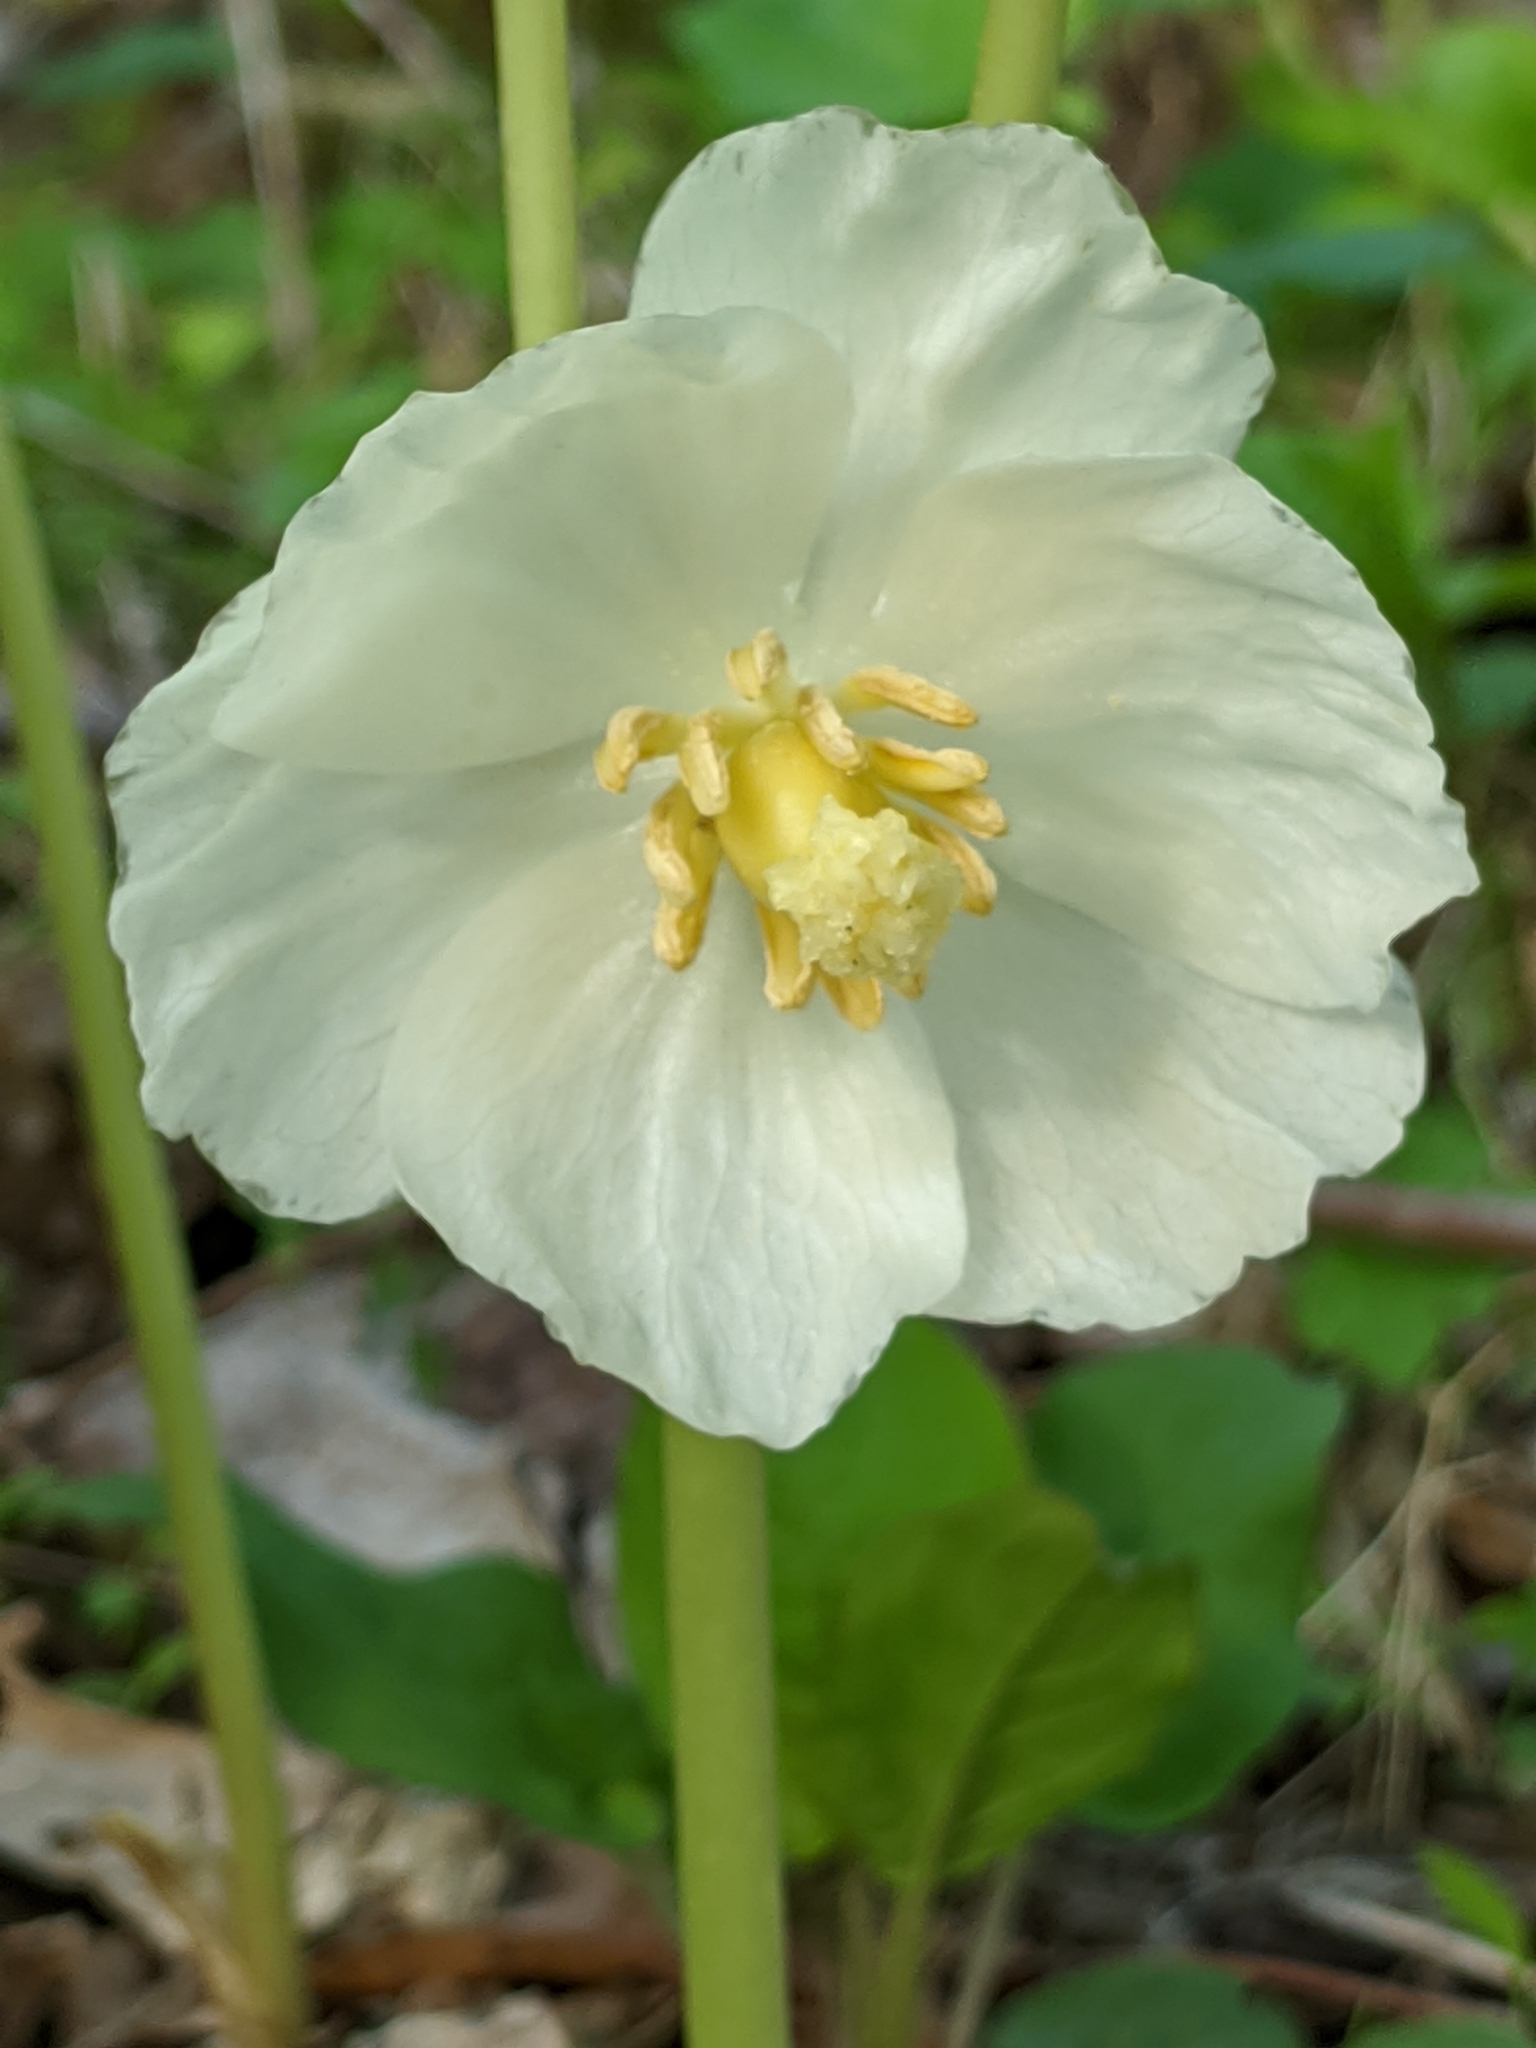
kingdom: Plantae
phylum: Tracheophyta
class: Magnoliopsida
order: Ranunculales
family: Berberidaceae
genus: Podophyllum
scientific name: Podophyllum peltatum
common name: Wild mandrake
